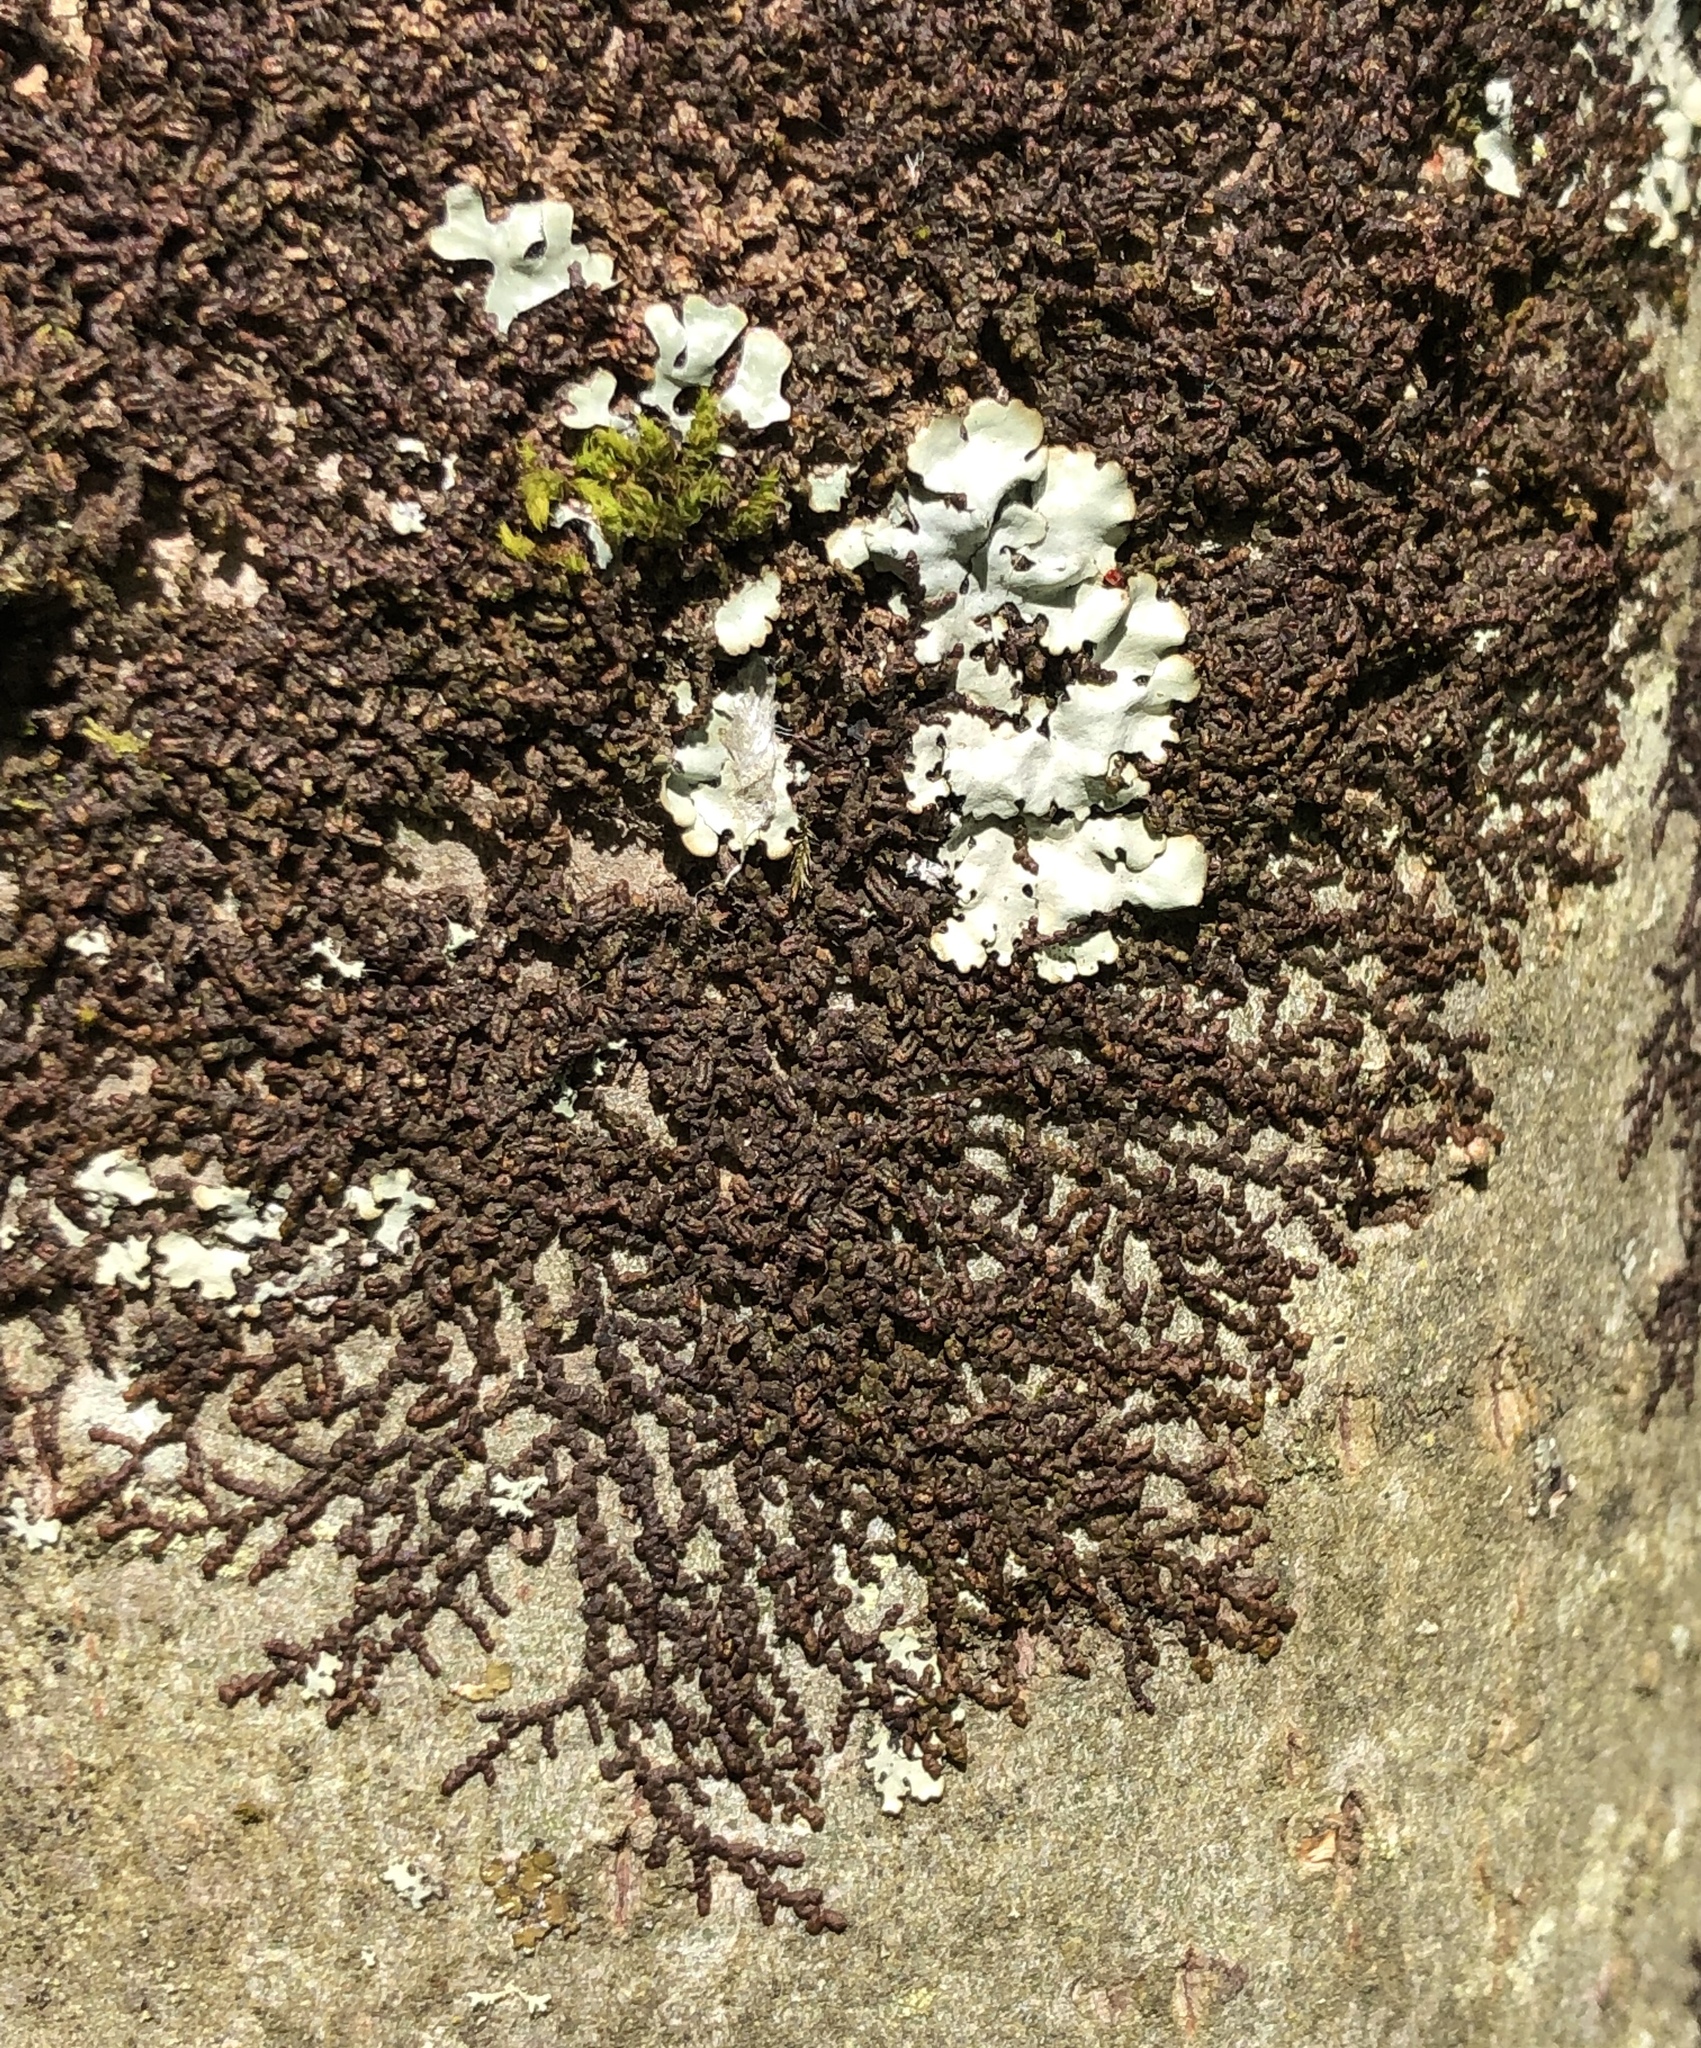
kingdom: Plantae
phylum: Marchantiophyta
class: Jungermanniopsida
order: Porellales
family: Frullaniaceae
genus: Frullania
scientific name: Frullania dilatata
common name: Dilated scalewort
